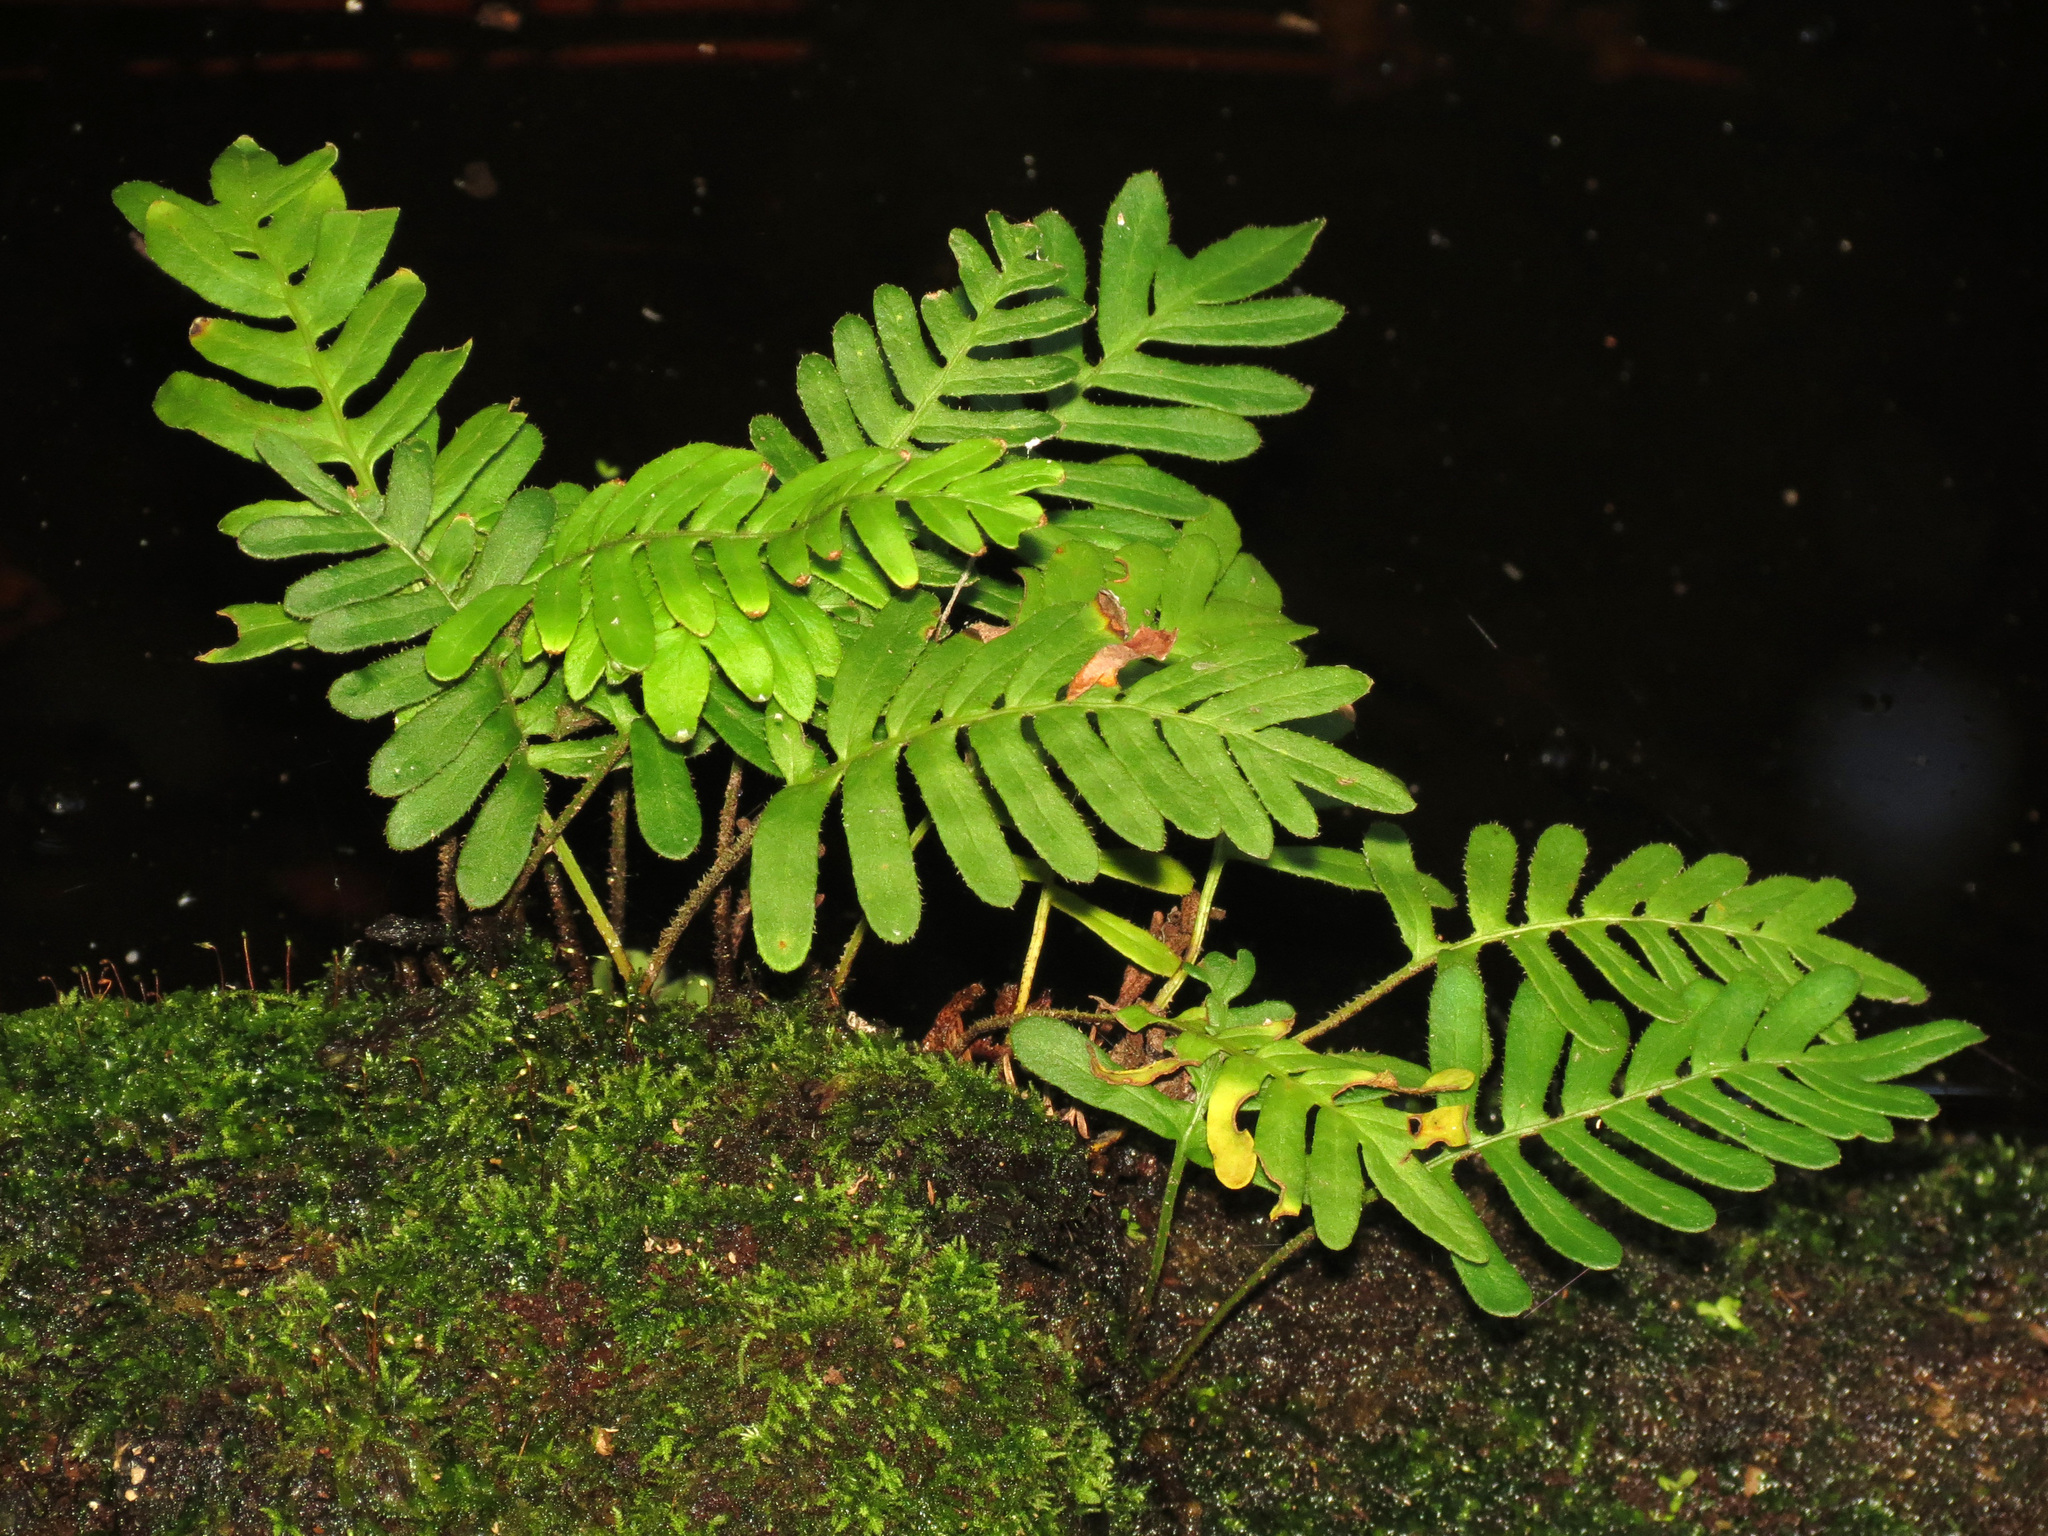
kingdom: Plantae
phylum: Tracheophyta
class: Polypodiopsida
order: Polypodiales
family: Polypodiaceae
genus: Pleopeltis
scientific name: Pleopeltis michauxiana
